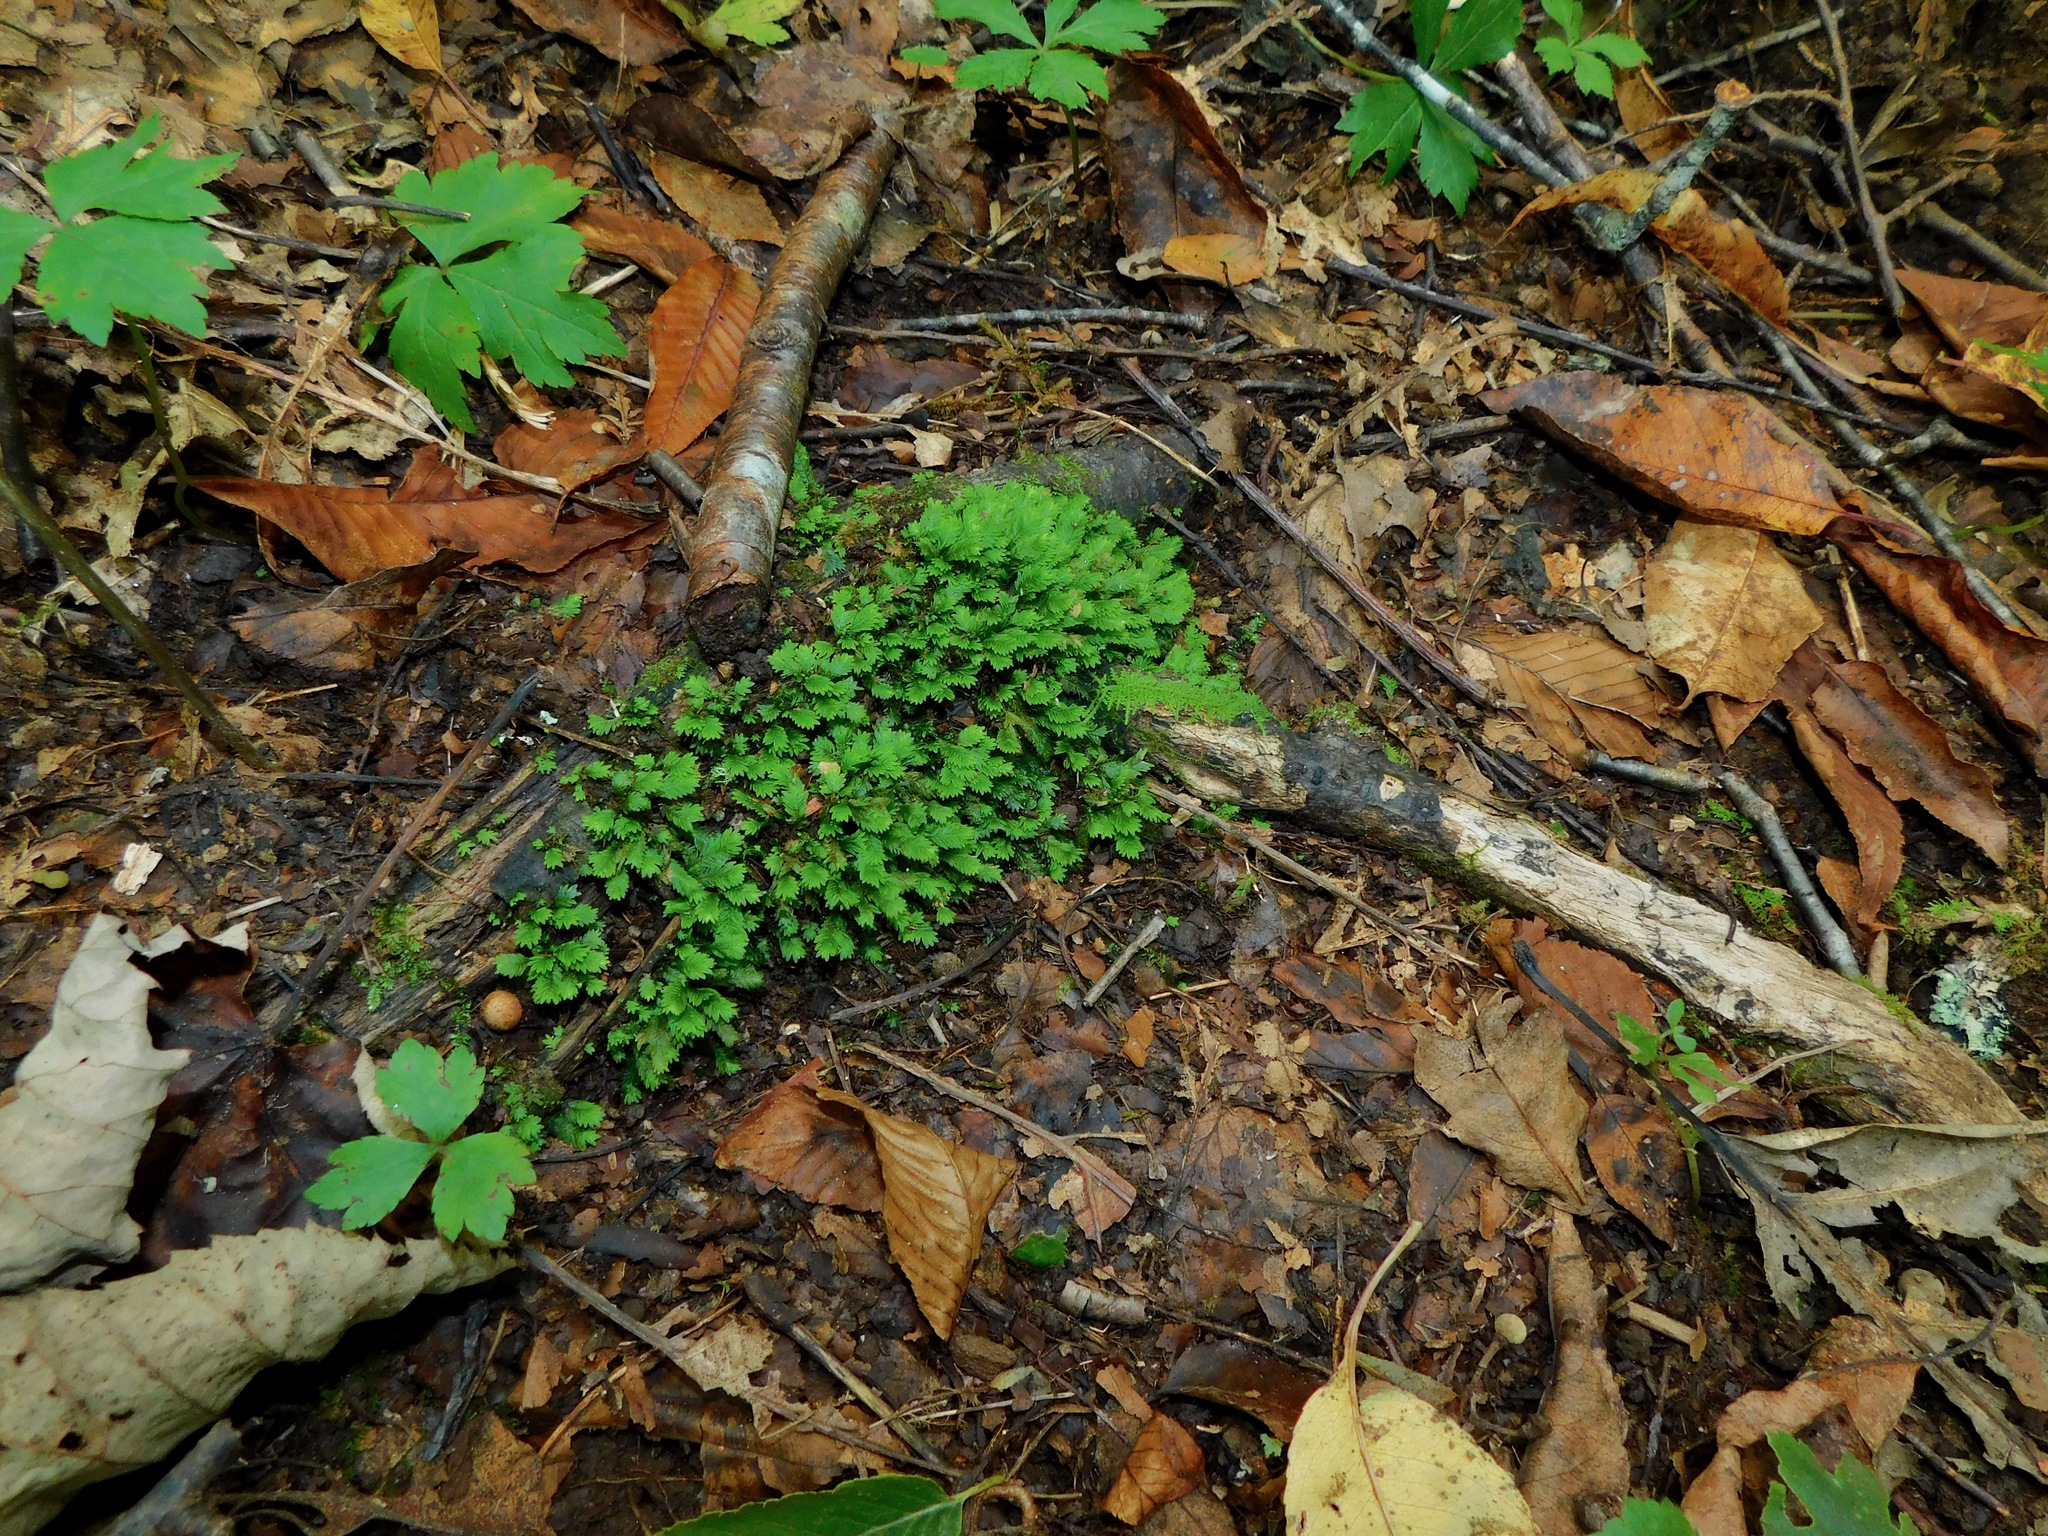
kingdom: Plantae
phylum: Bryophyta
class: Bryopsida
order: Dicranales
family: Fissidentaceae
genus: Fissidens
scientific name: Fissidens osmundioides
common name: Osmund fissidens moss
